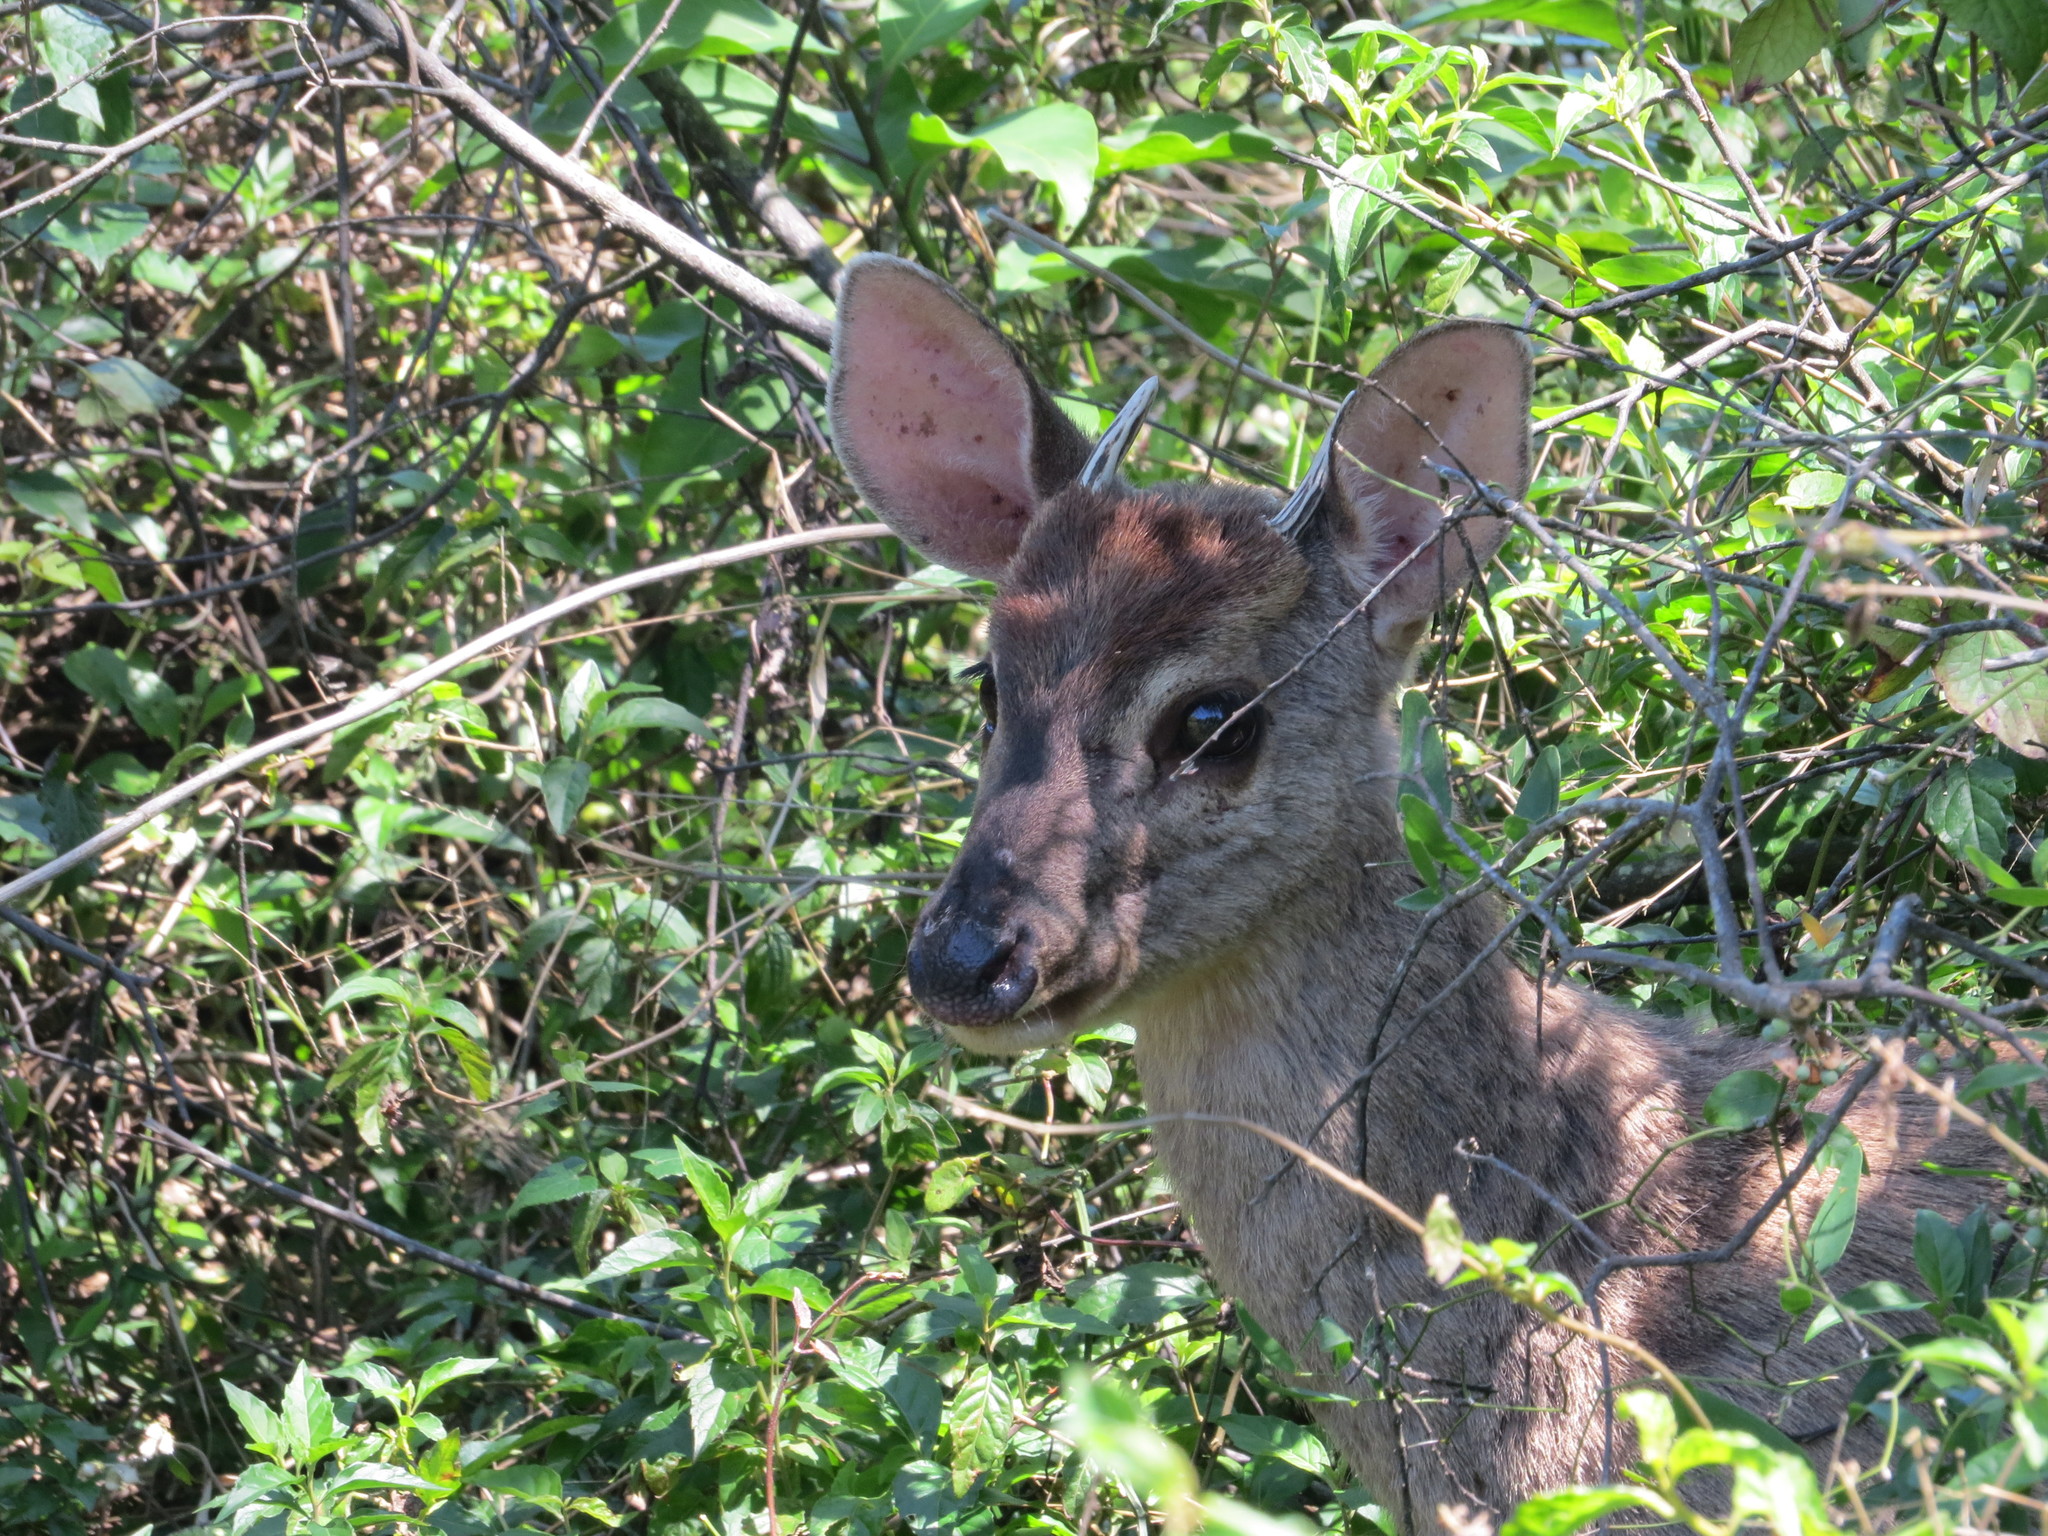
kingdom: Animalia
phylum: Chordata
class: Mammalia
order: Artiodactyla
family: Cervidae
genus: Mazama
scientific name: Mazama gouazoubira
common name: Gray brocket
